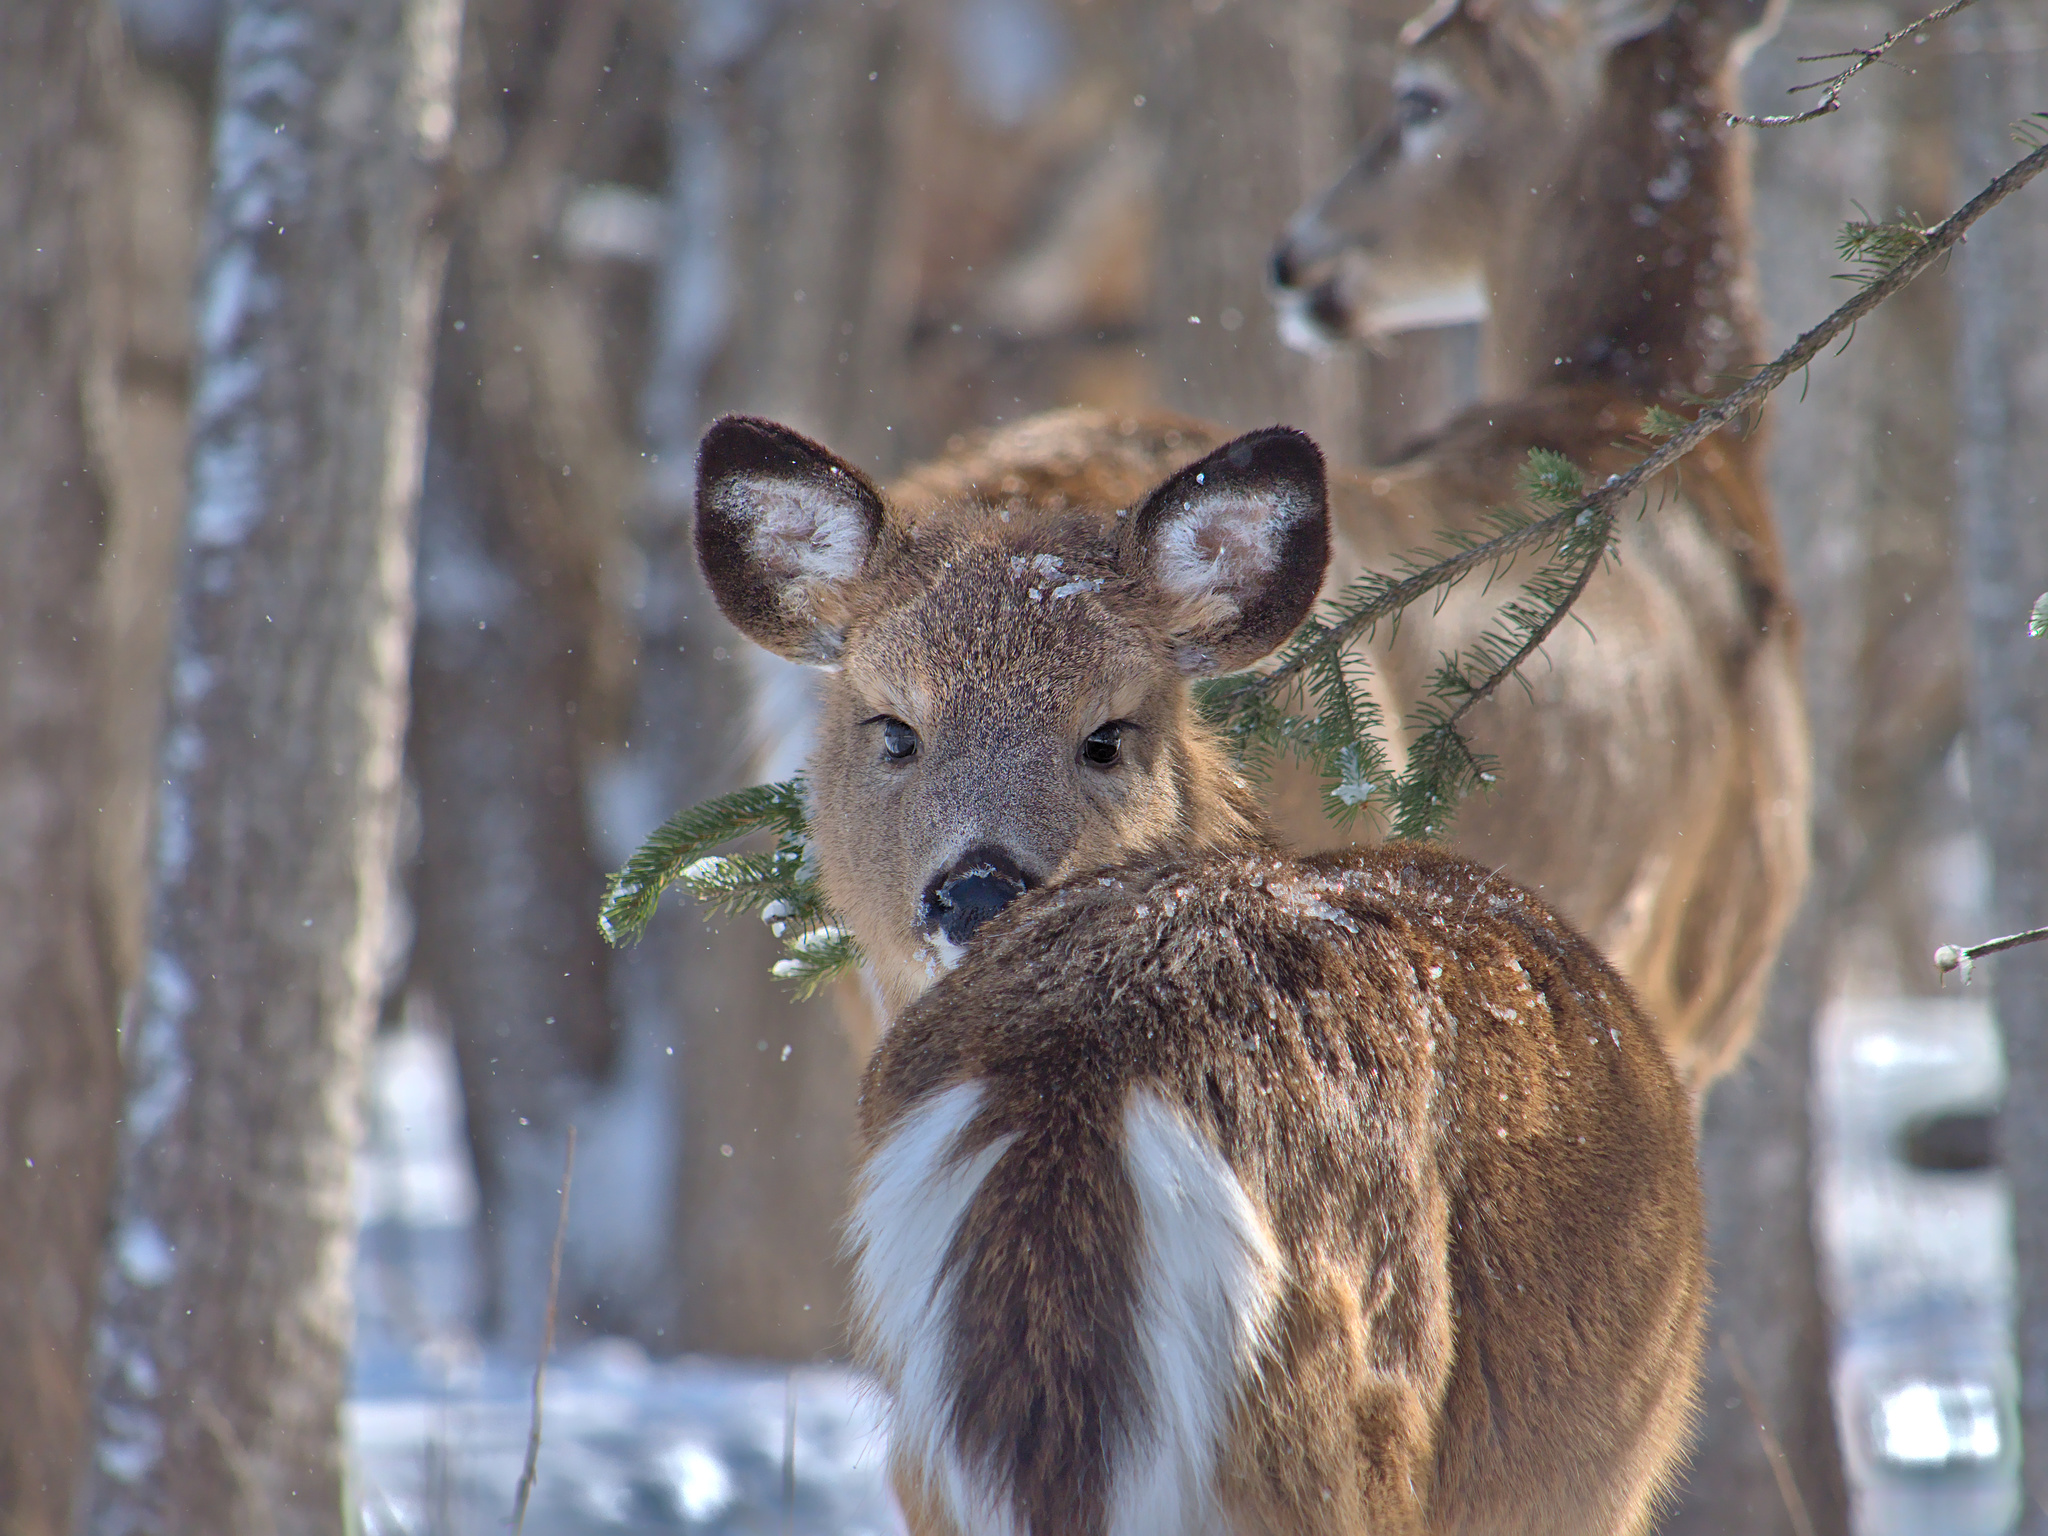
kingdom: Animalia
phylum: Chordata
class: Mammalia
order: Artiodactyla
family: Cervidae
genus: Odocoileus
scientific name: Odocoileus virginianus
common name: White-tailed deer
